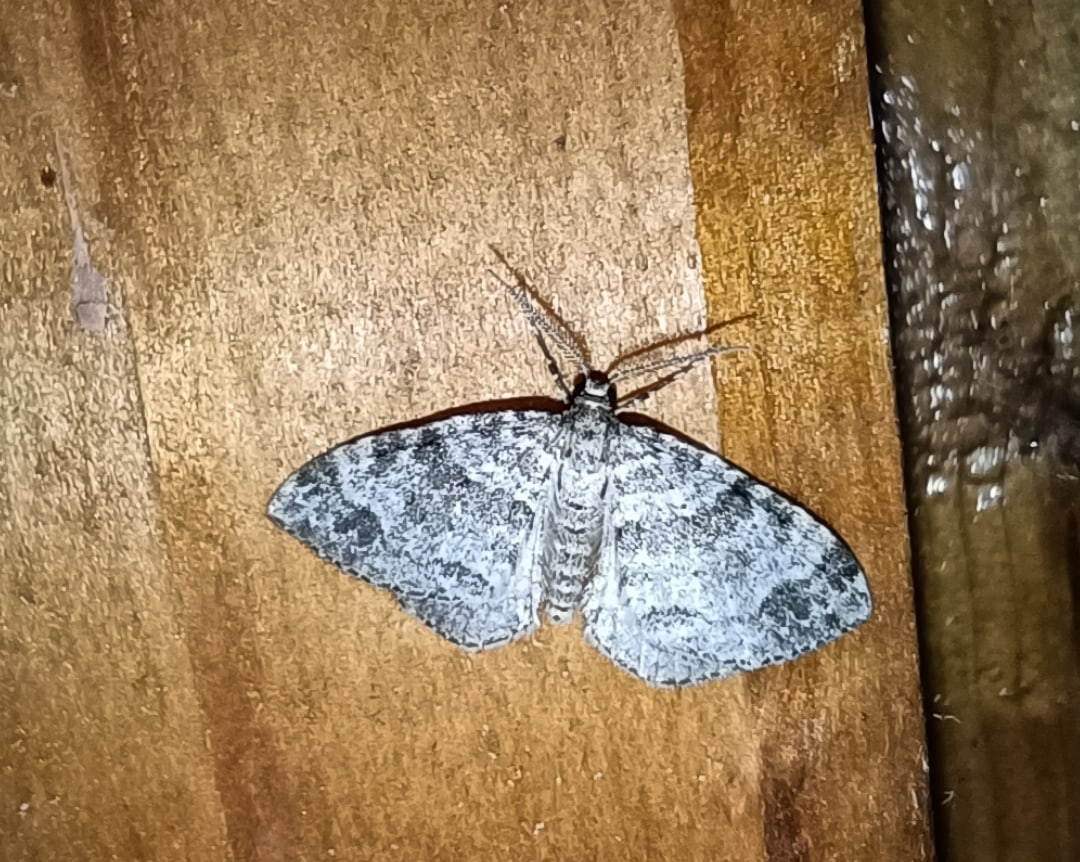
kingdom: Animalia
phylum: Arthropoda
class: Insecta
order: Lepidoptera
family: Geometridae
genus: Perizoma
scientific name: Perizoma didymata
